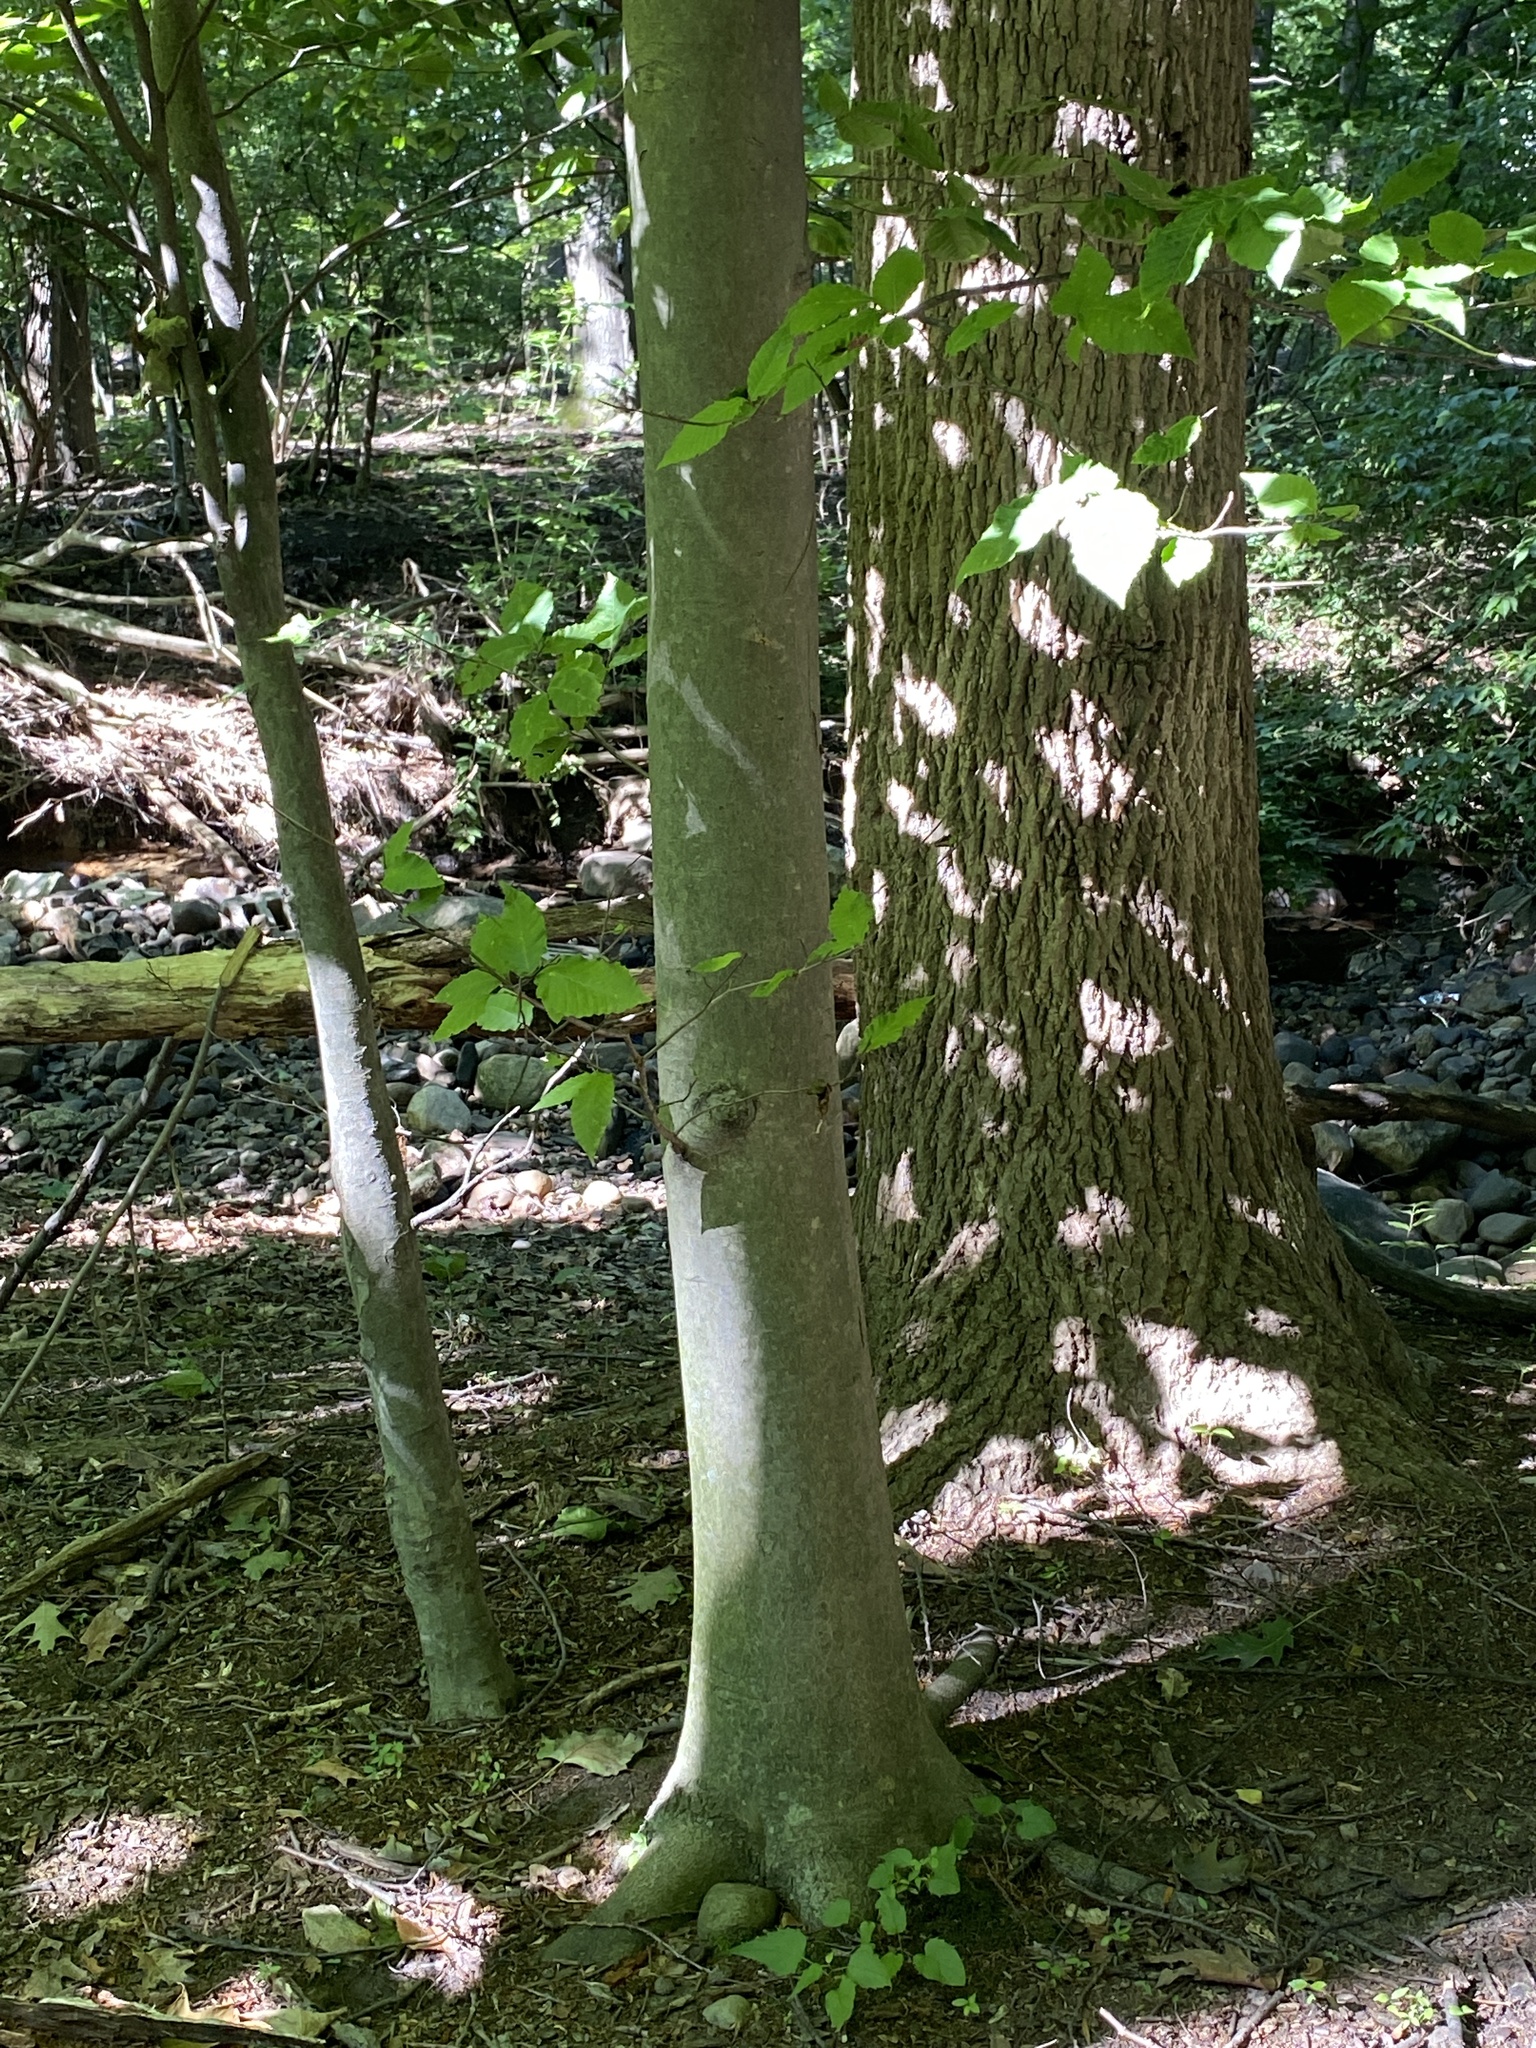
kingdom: Plantae
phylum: Tracheophyta
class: Magnoliopsida
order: Fagales
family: Fagaceae
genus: Fagus
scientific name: Fagus grandifolia
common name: American beech
